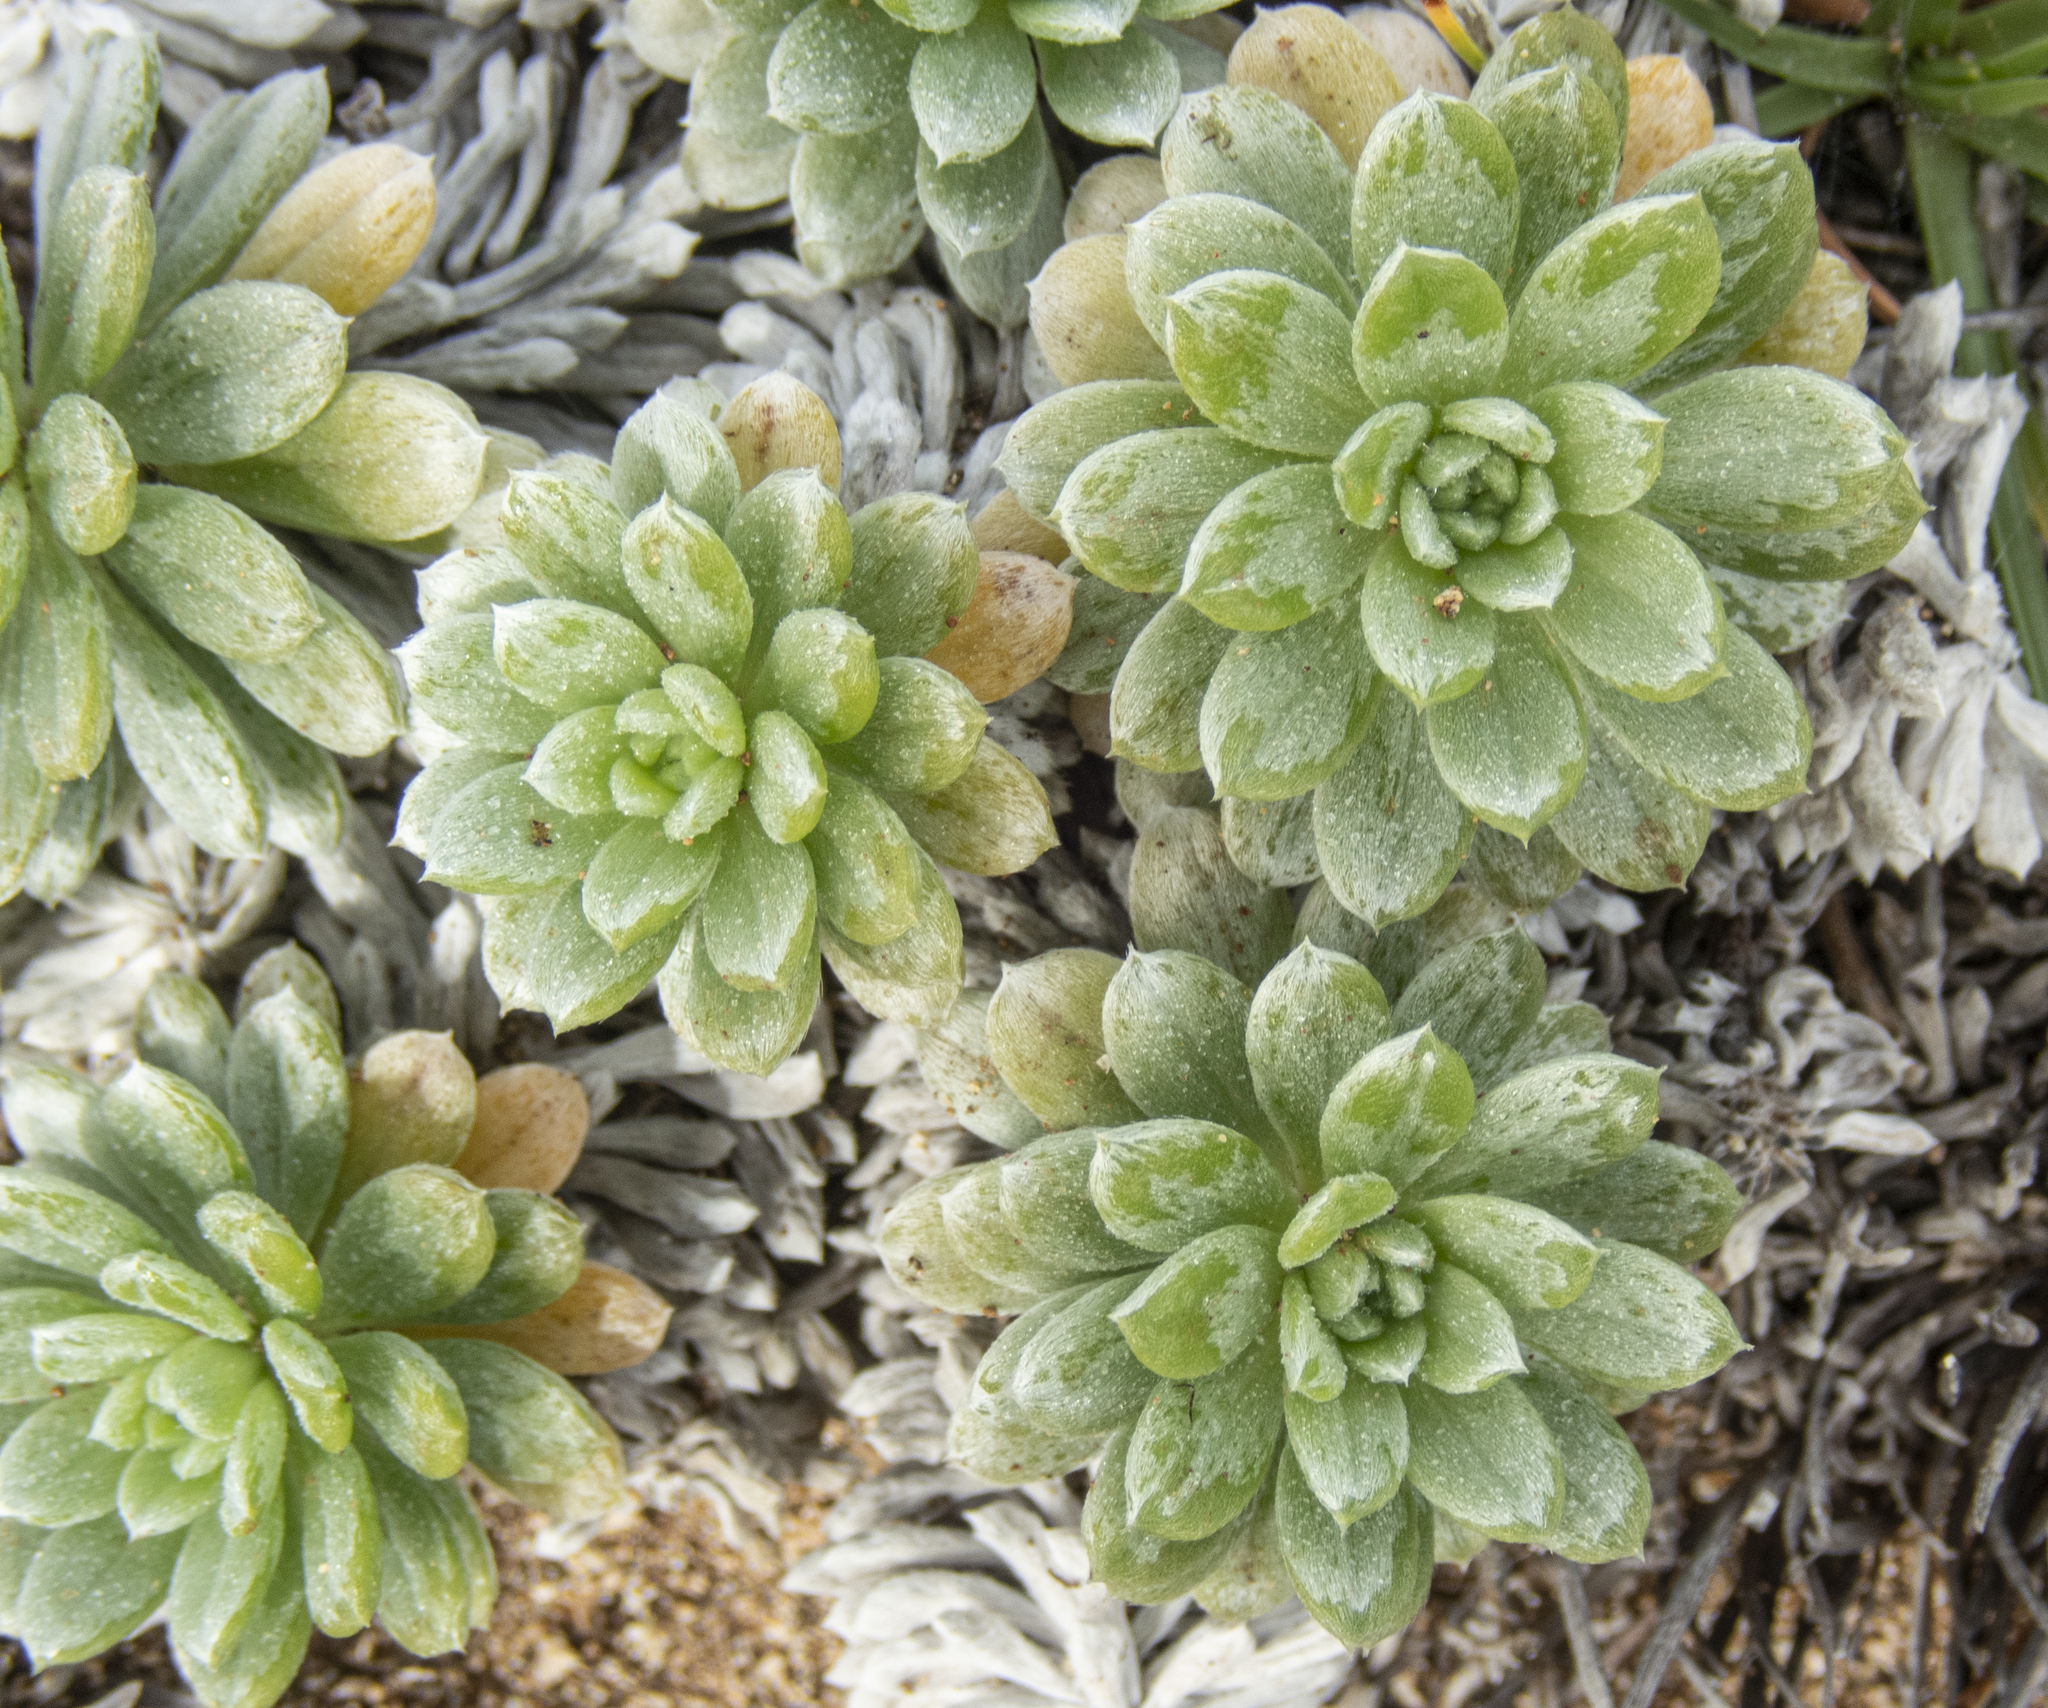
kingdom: Plantae
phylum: Tracheophyta
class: Magnoliopsida
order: Boraginales
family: Heliotropiaceae
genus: Heliotropium
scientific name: Heliotropium anomalum
